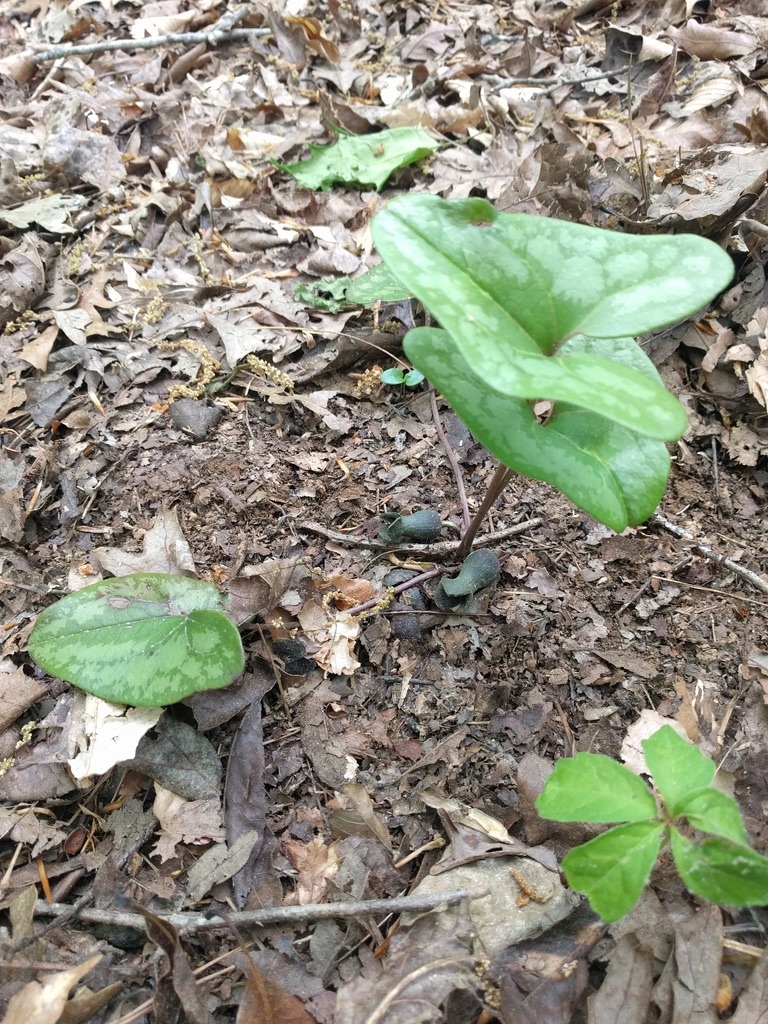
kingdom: Plantae
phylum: Tracheophyta
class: Magnoliopsida
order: Piperales
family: Aristolochiaceae
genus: Hexastylis
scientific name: Hexastylis arifolia
